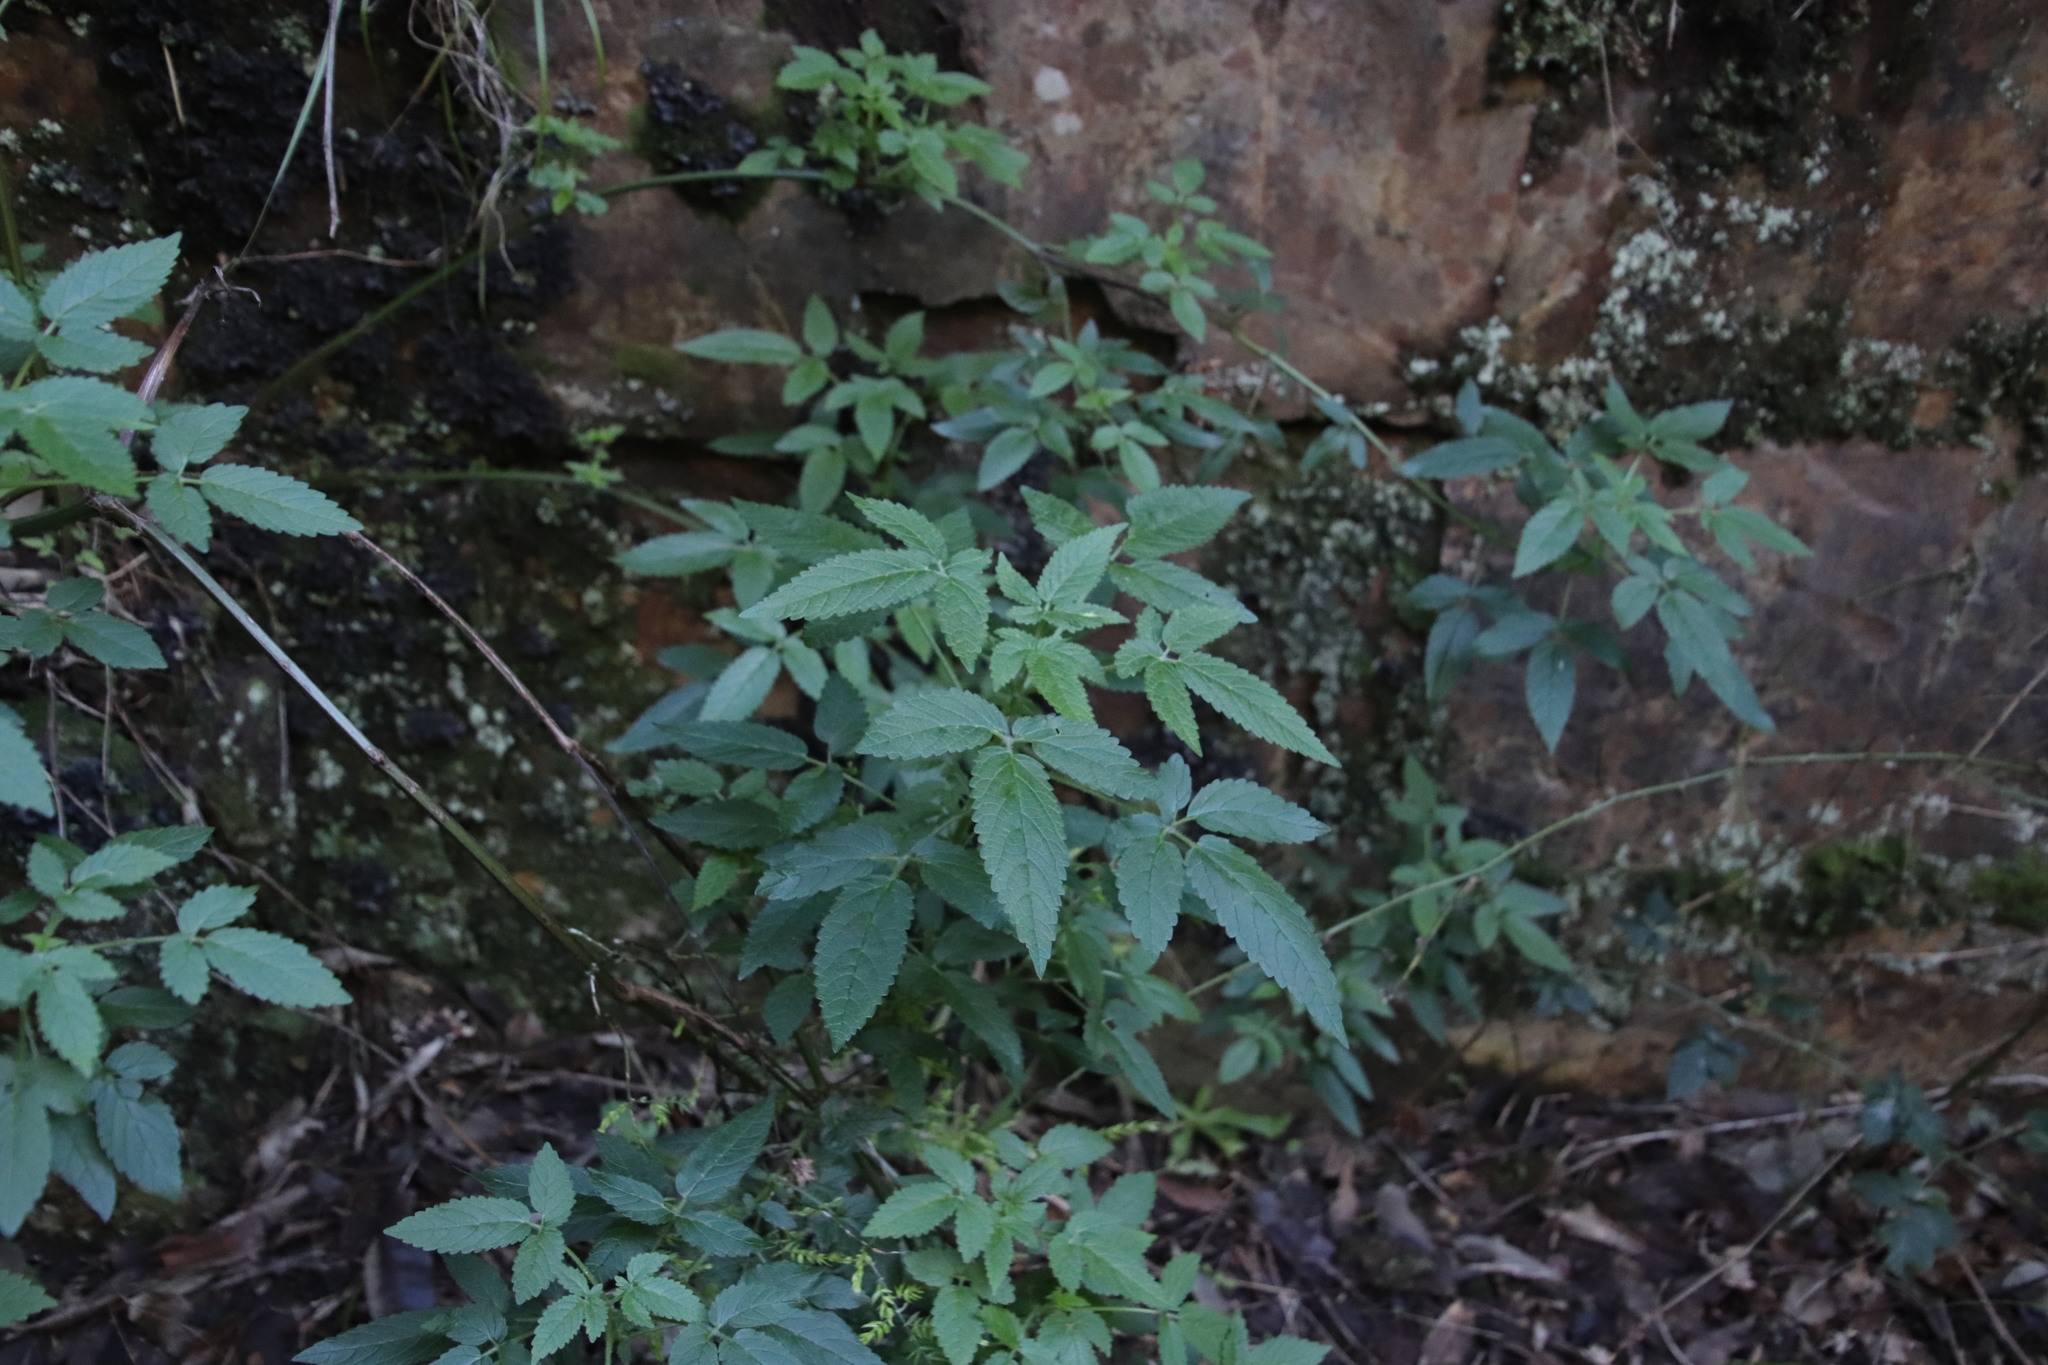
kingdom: Plantae
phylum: Tracheophyta
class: Magnoliopsida
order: Lamiales
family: Lamiaceae
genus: Cedronella
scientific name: Cedronella canariensis
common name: Canary islands balm
